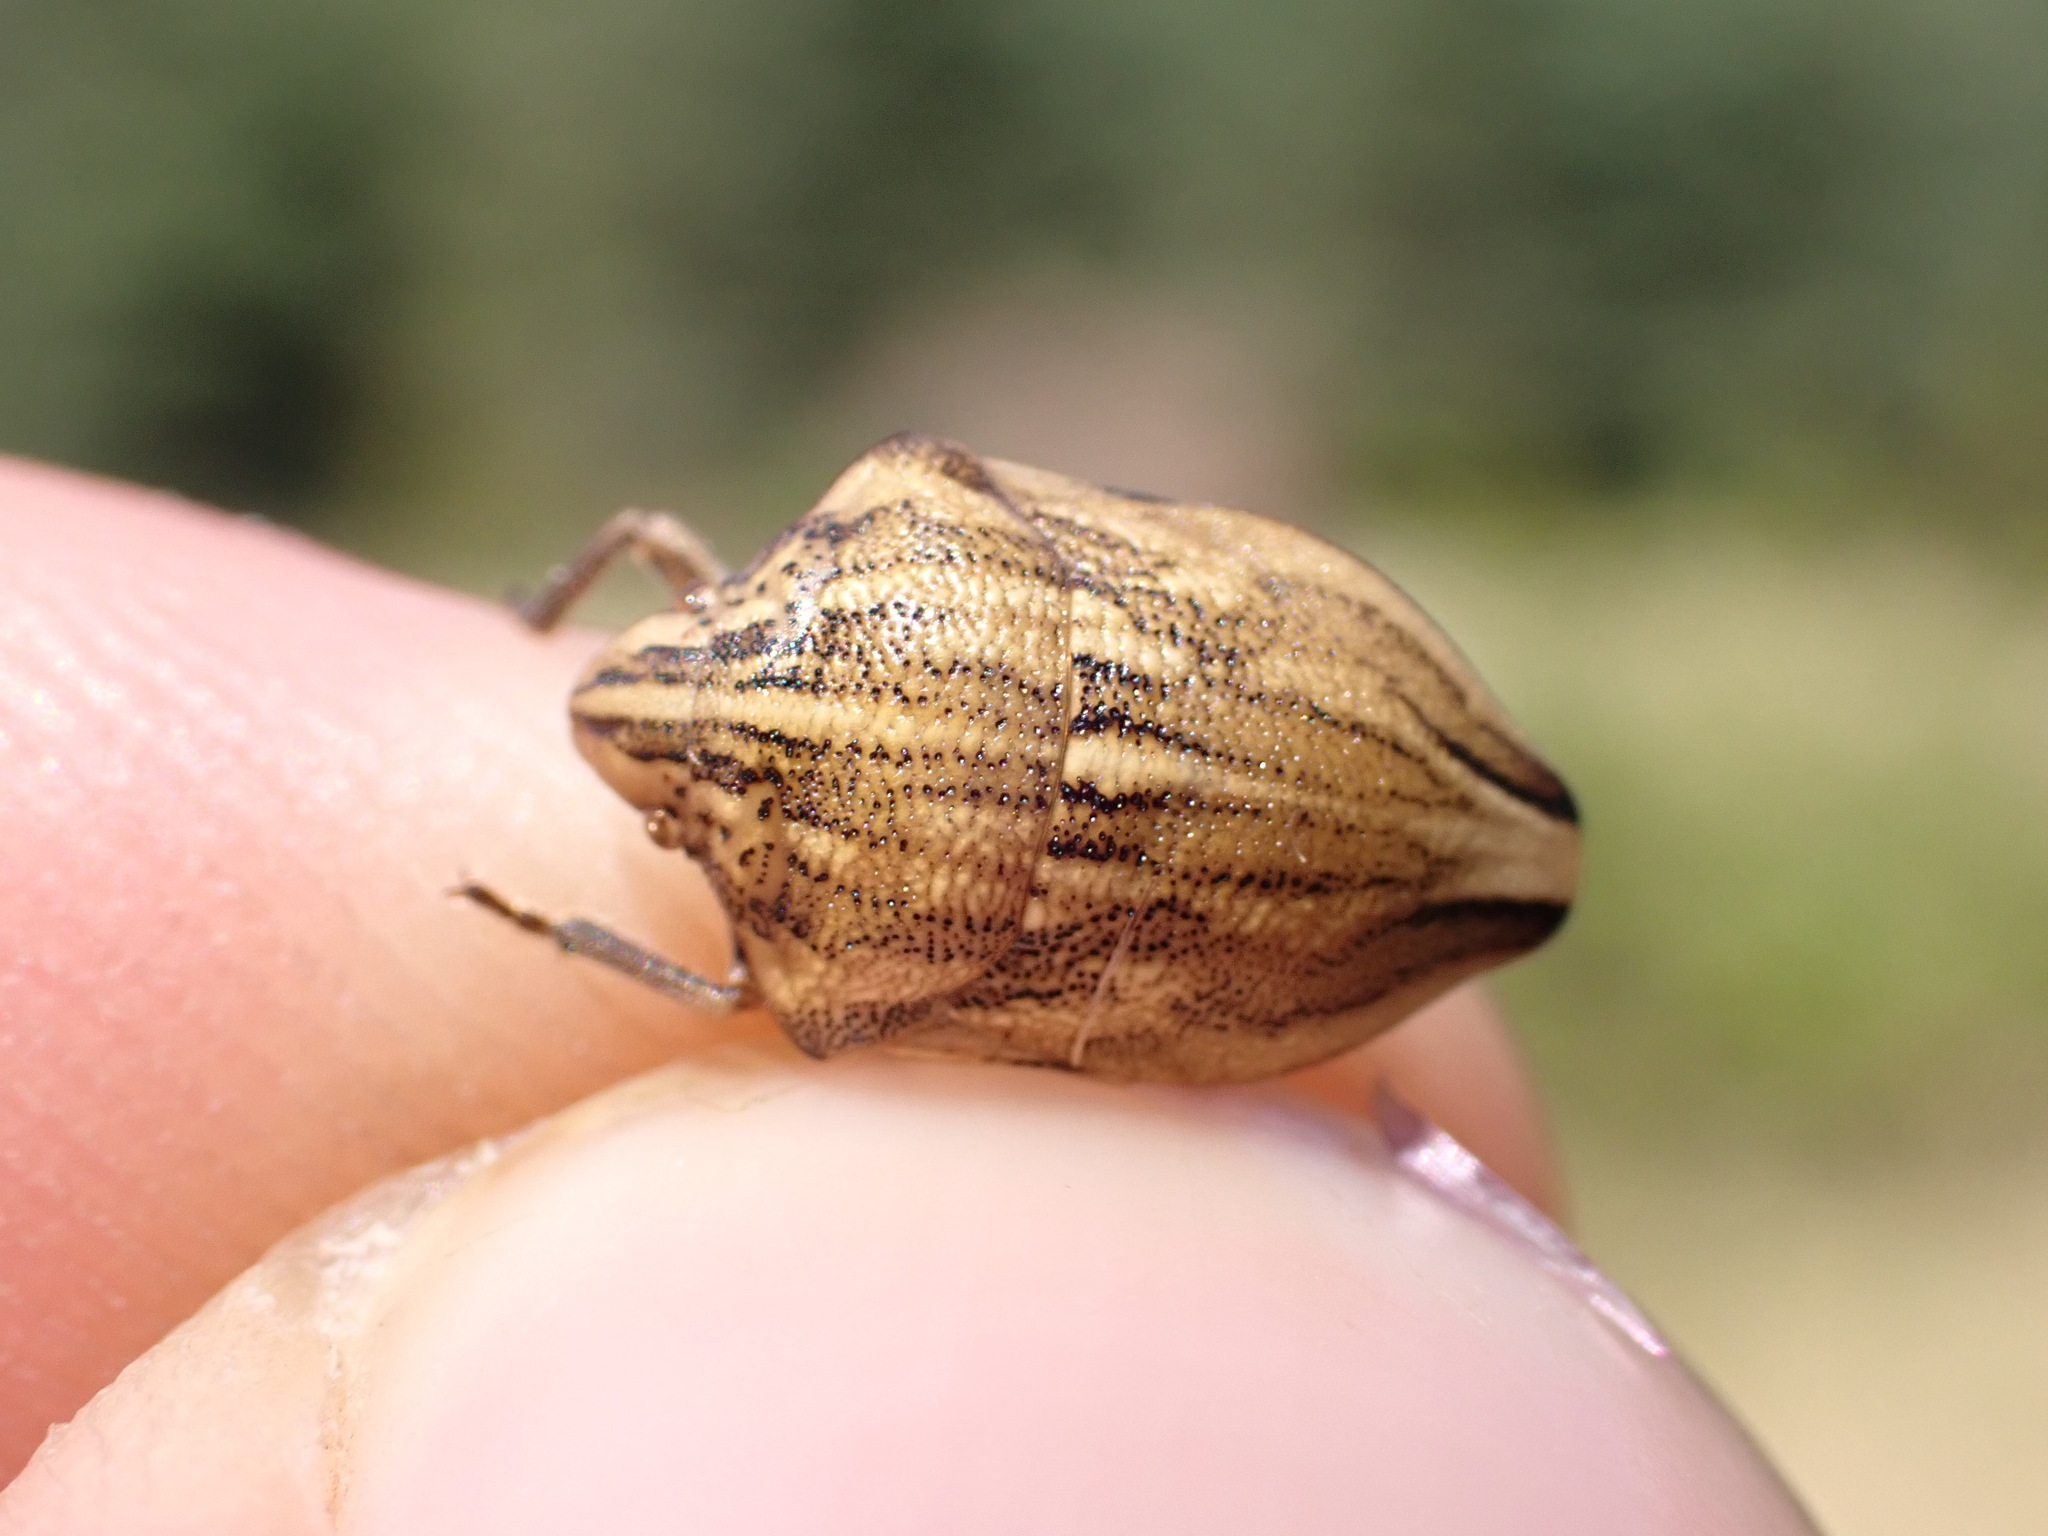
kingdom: Animalia
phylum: Arthropoda
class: Insecta
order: Hemiptera
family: Scutelleridae
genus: Odontotarsus
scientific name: Odontotarsus purpureolineatus
